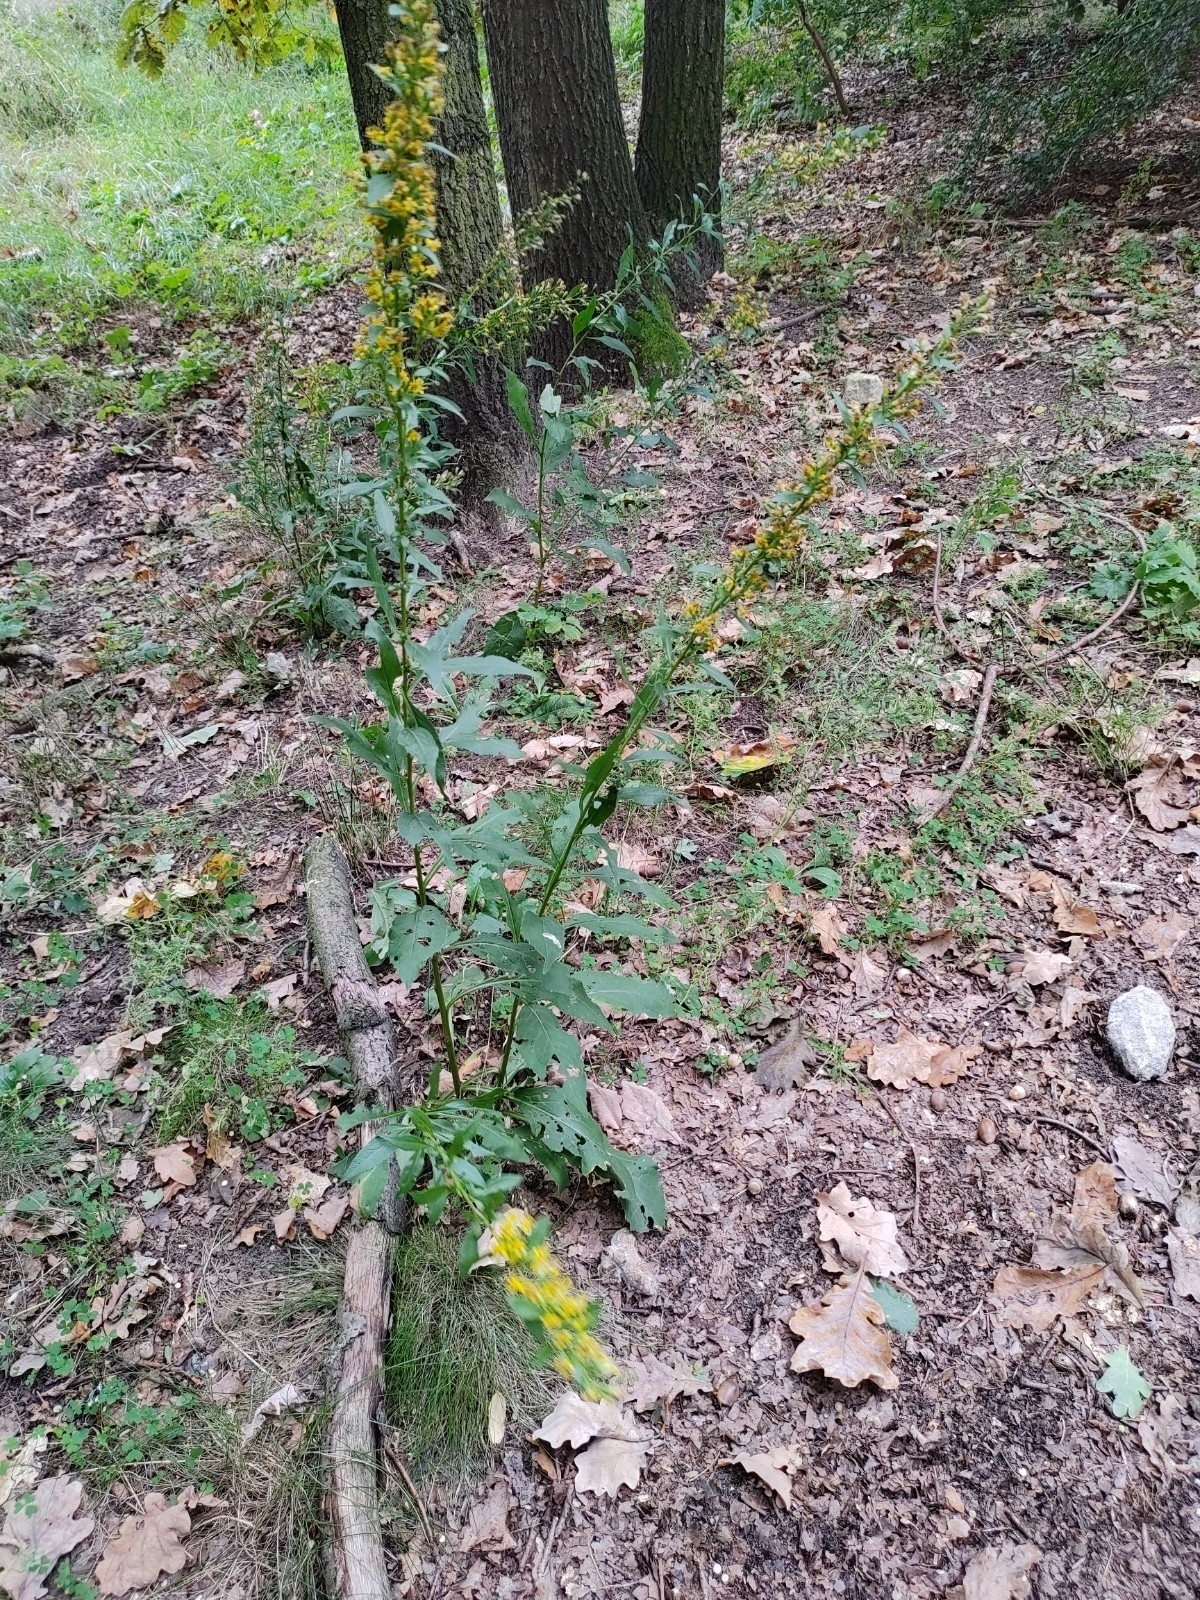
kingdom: Plantae
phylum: Tracheophyta
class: Magnoliopsida
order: Asterales
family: Asteraceae
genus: Solidago
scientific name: Solidago virgaurea
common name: Goldenrod
